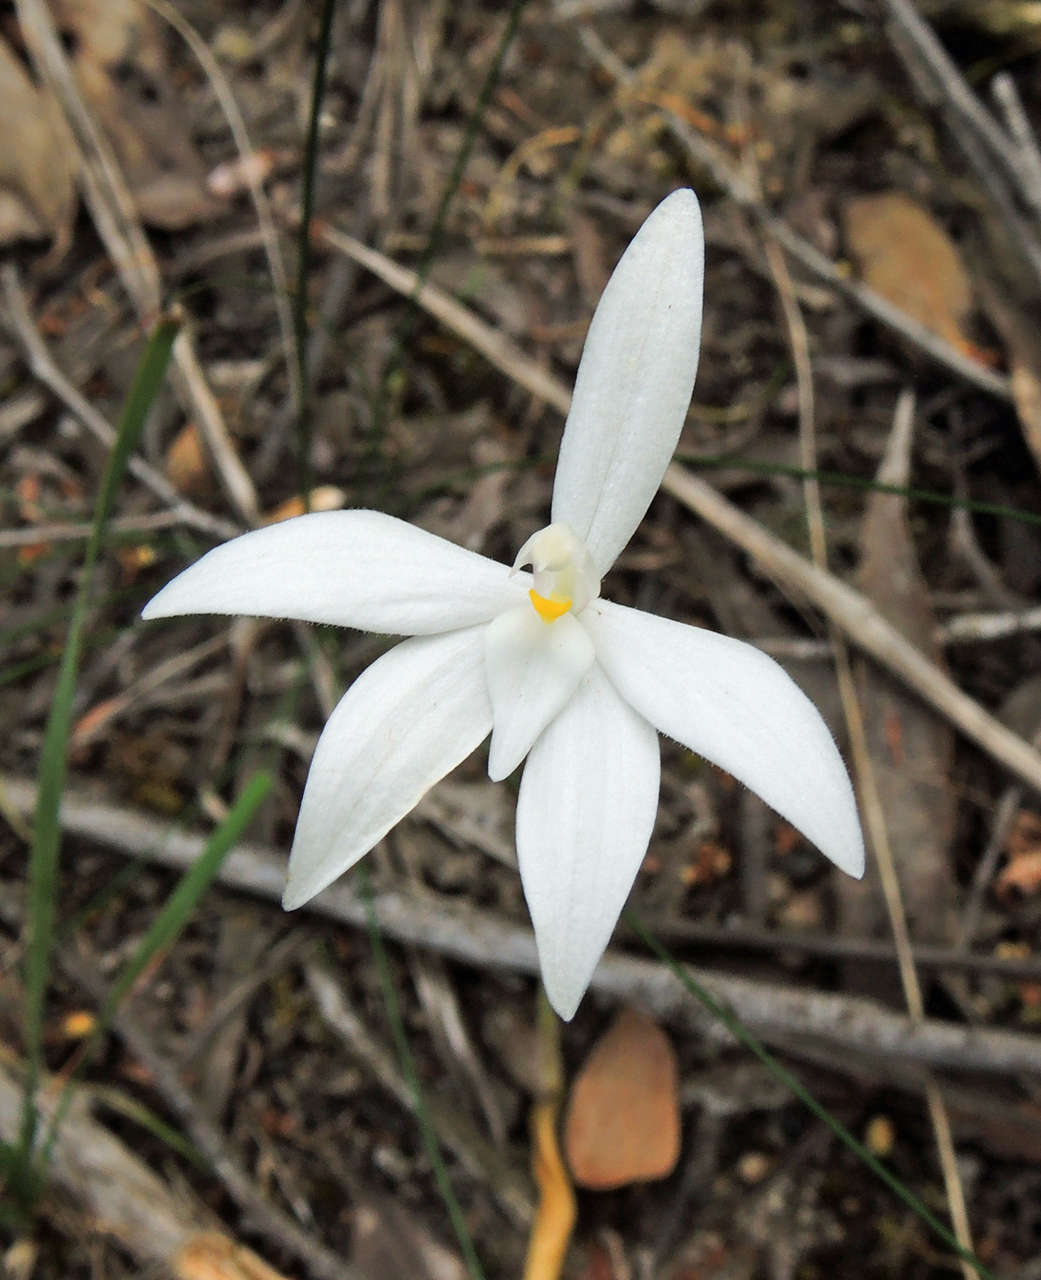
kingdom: Plantae
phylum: Tracheophyta
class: Liliopsida
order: Asparagales
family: Orchidaceae
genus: Caladenia
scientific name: Caladenia major
